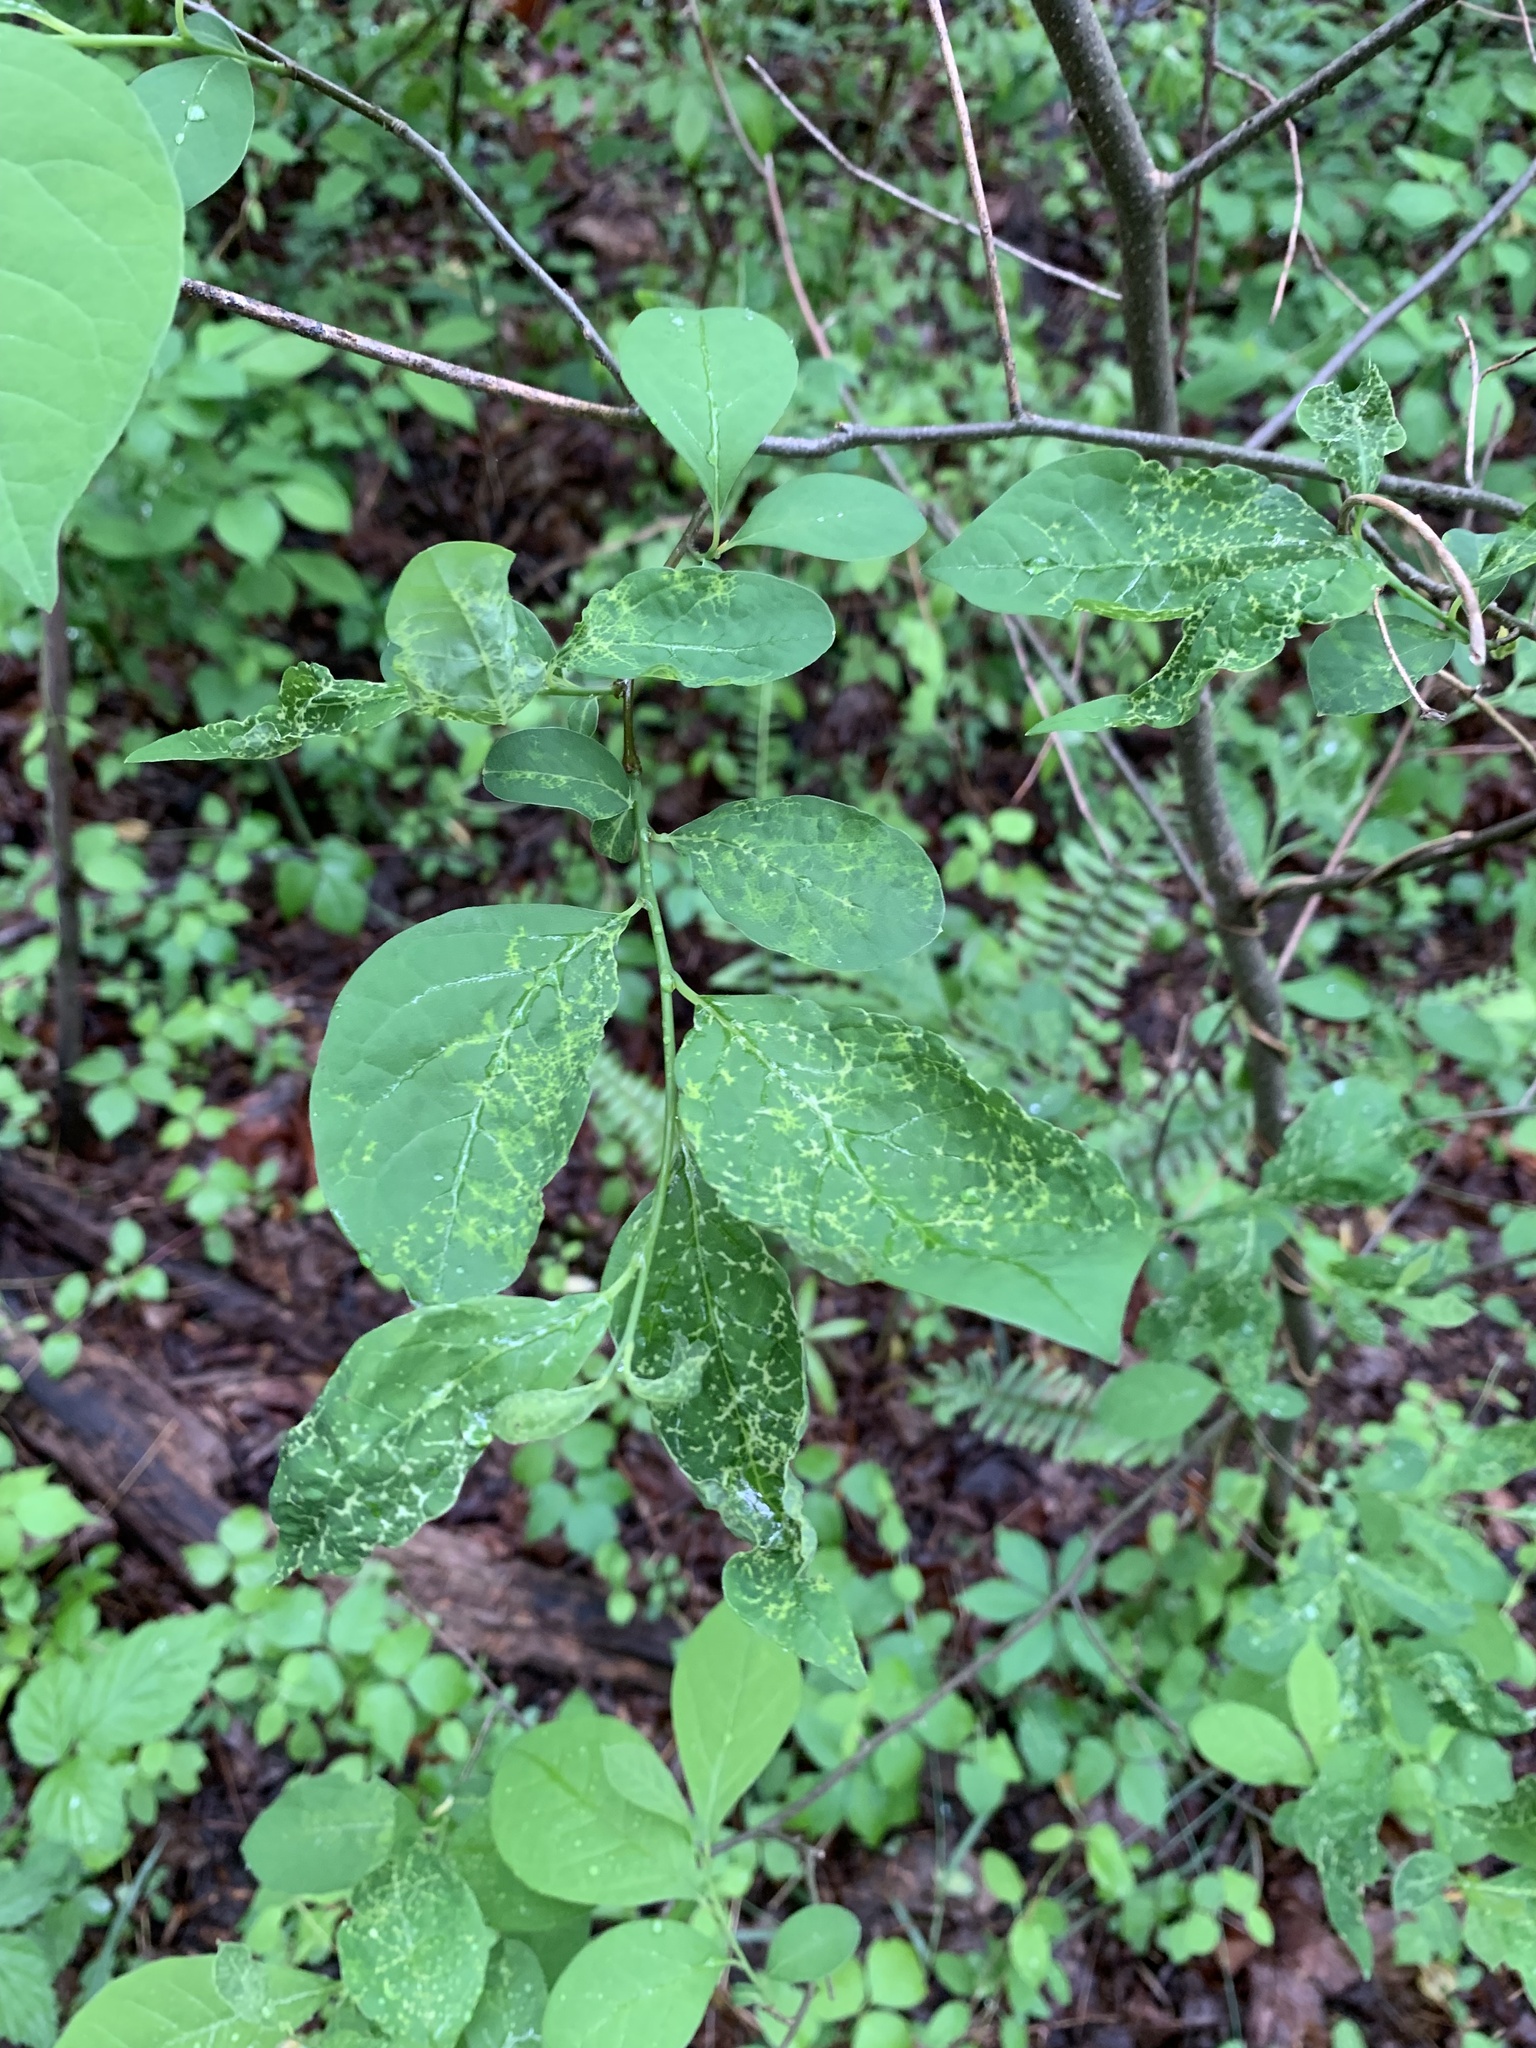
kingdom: Plantae
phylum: Tracheophyta
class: Magnoliopsida
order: Laurales
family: Lauraceae
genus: Lindera
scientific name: Lindera benzoin
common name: Spicebush
